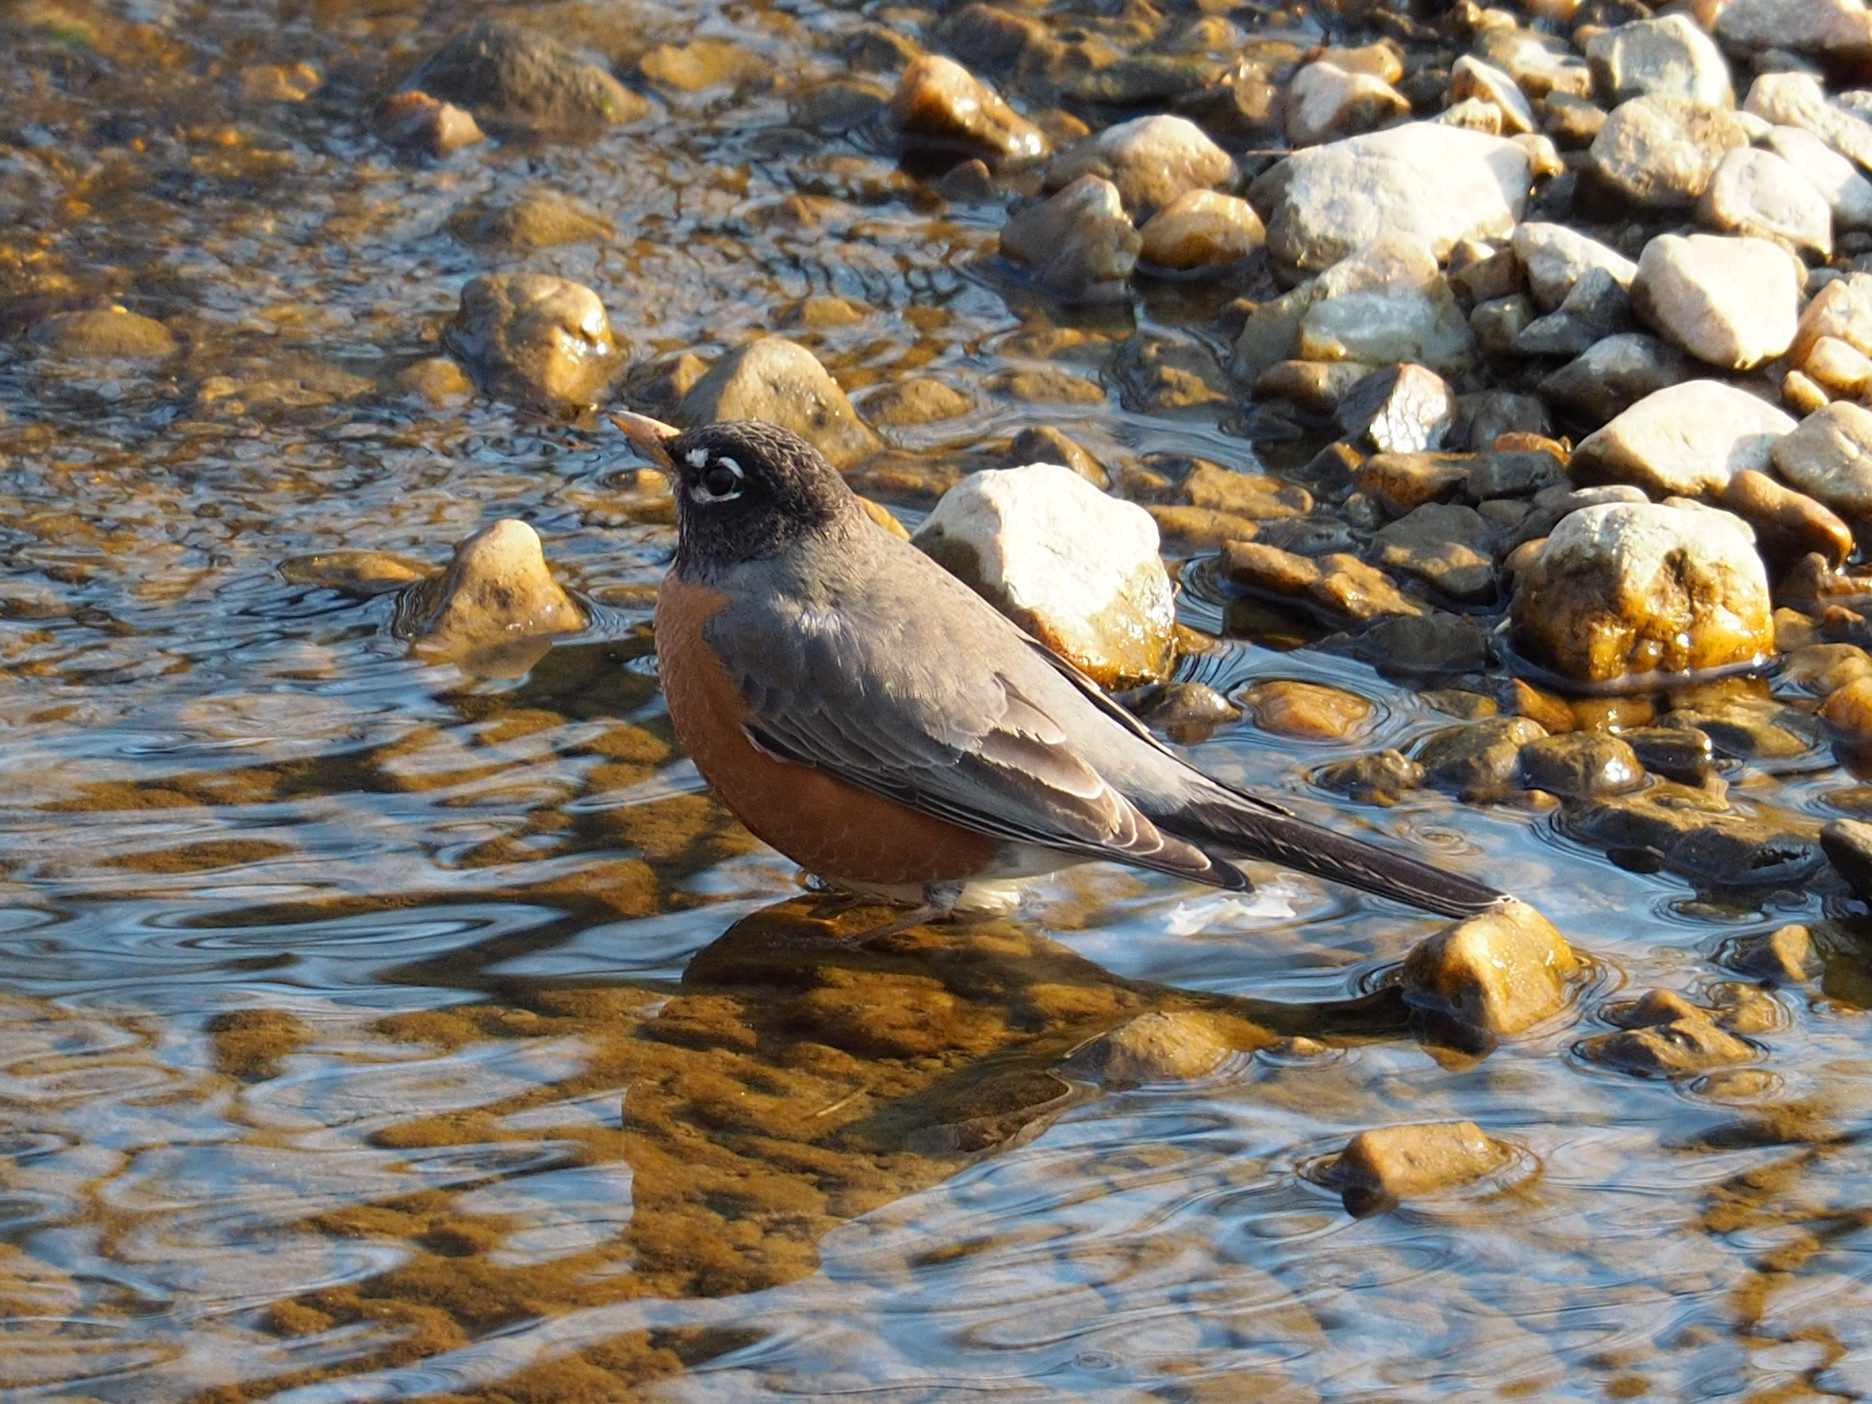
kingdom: Animalia
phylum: Chordata
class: Aves
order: Passeriformes
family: Turdidae
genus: Turdus
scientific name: Turdus migratorius
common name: American robin
